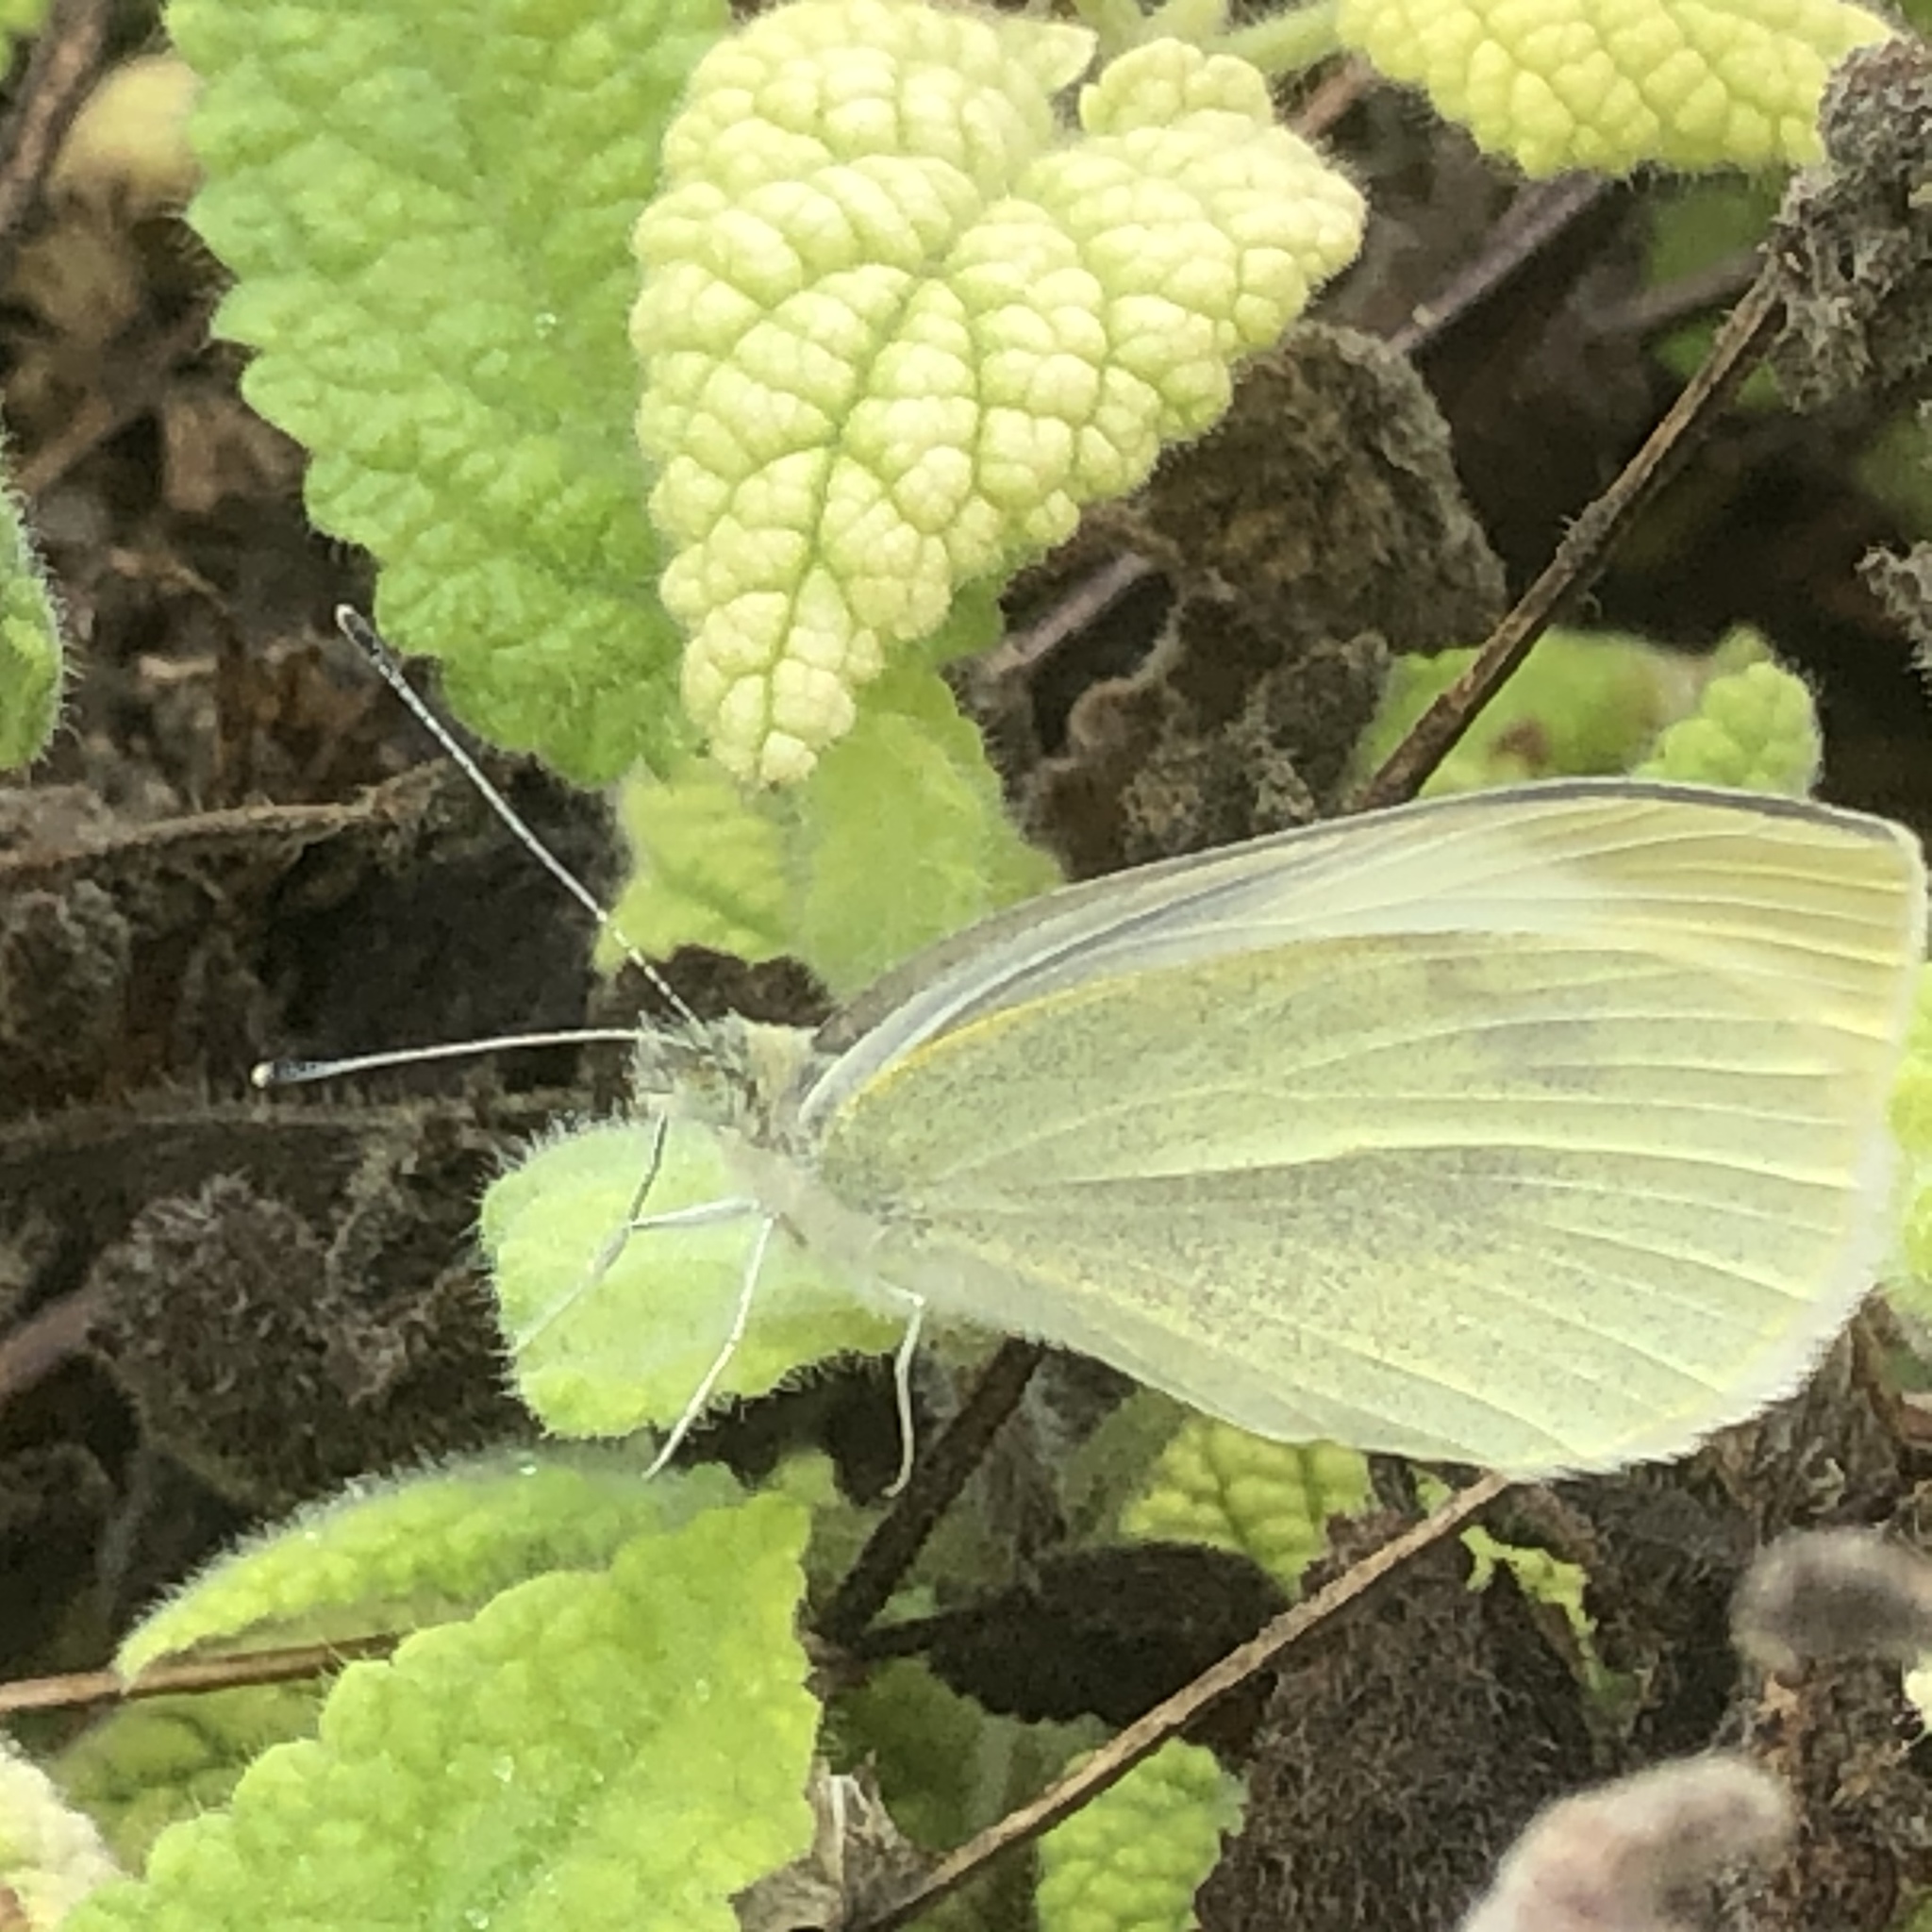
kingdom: Animalia
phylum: Arthropoda
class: Insecta
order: Lepidoptera
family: Pieridae
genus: Pieris
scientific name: Pieris rapae
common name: Small white
